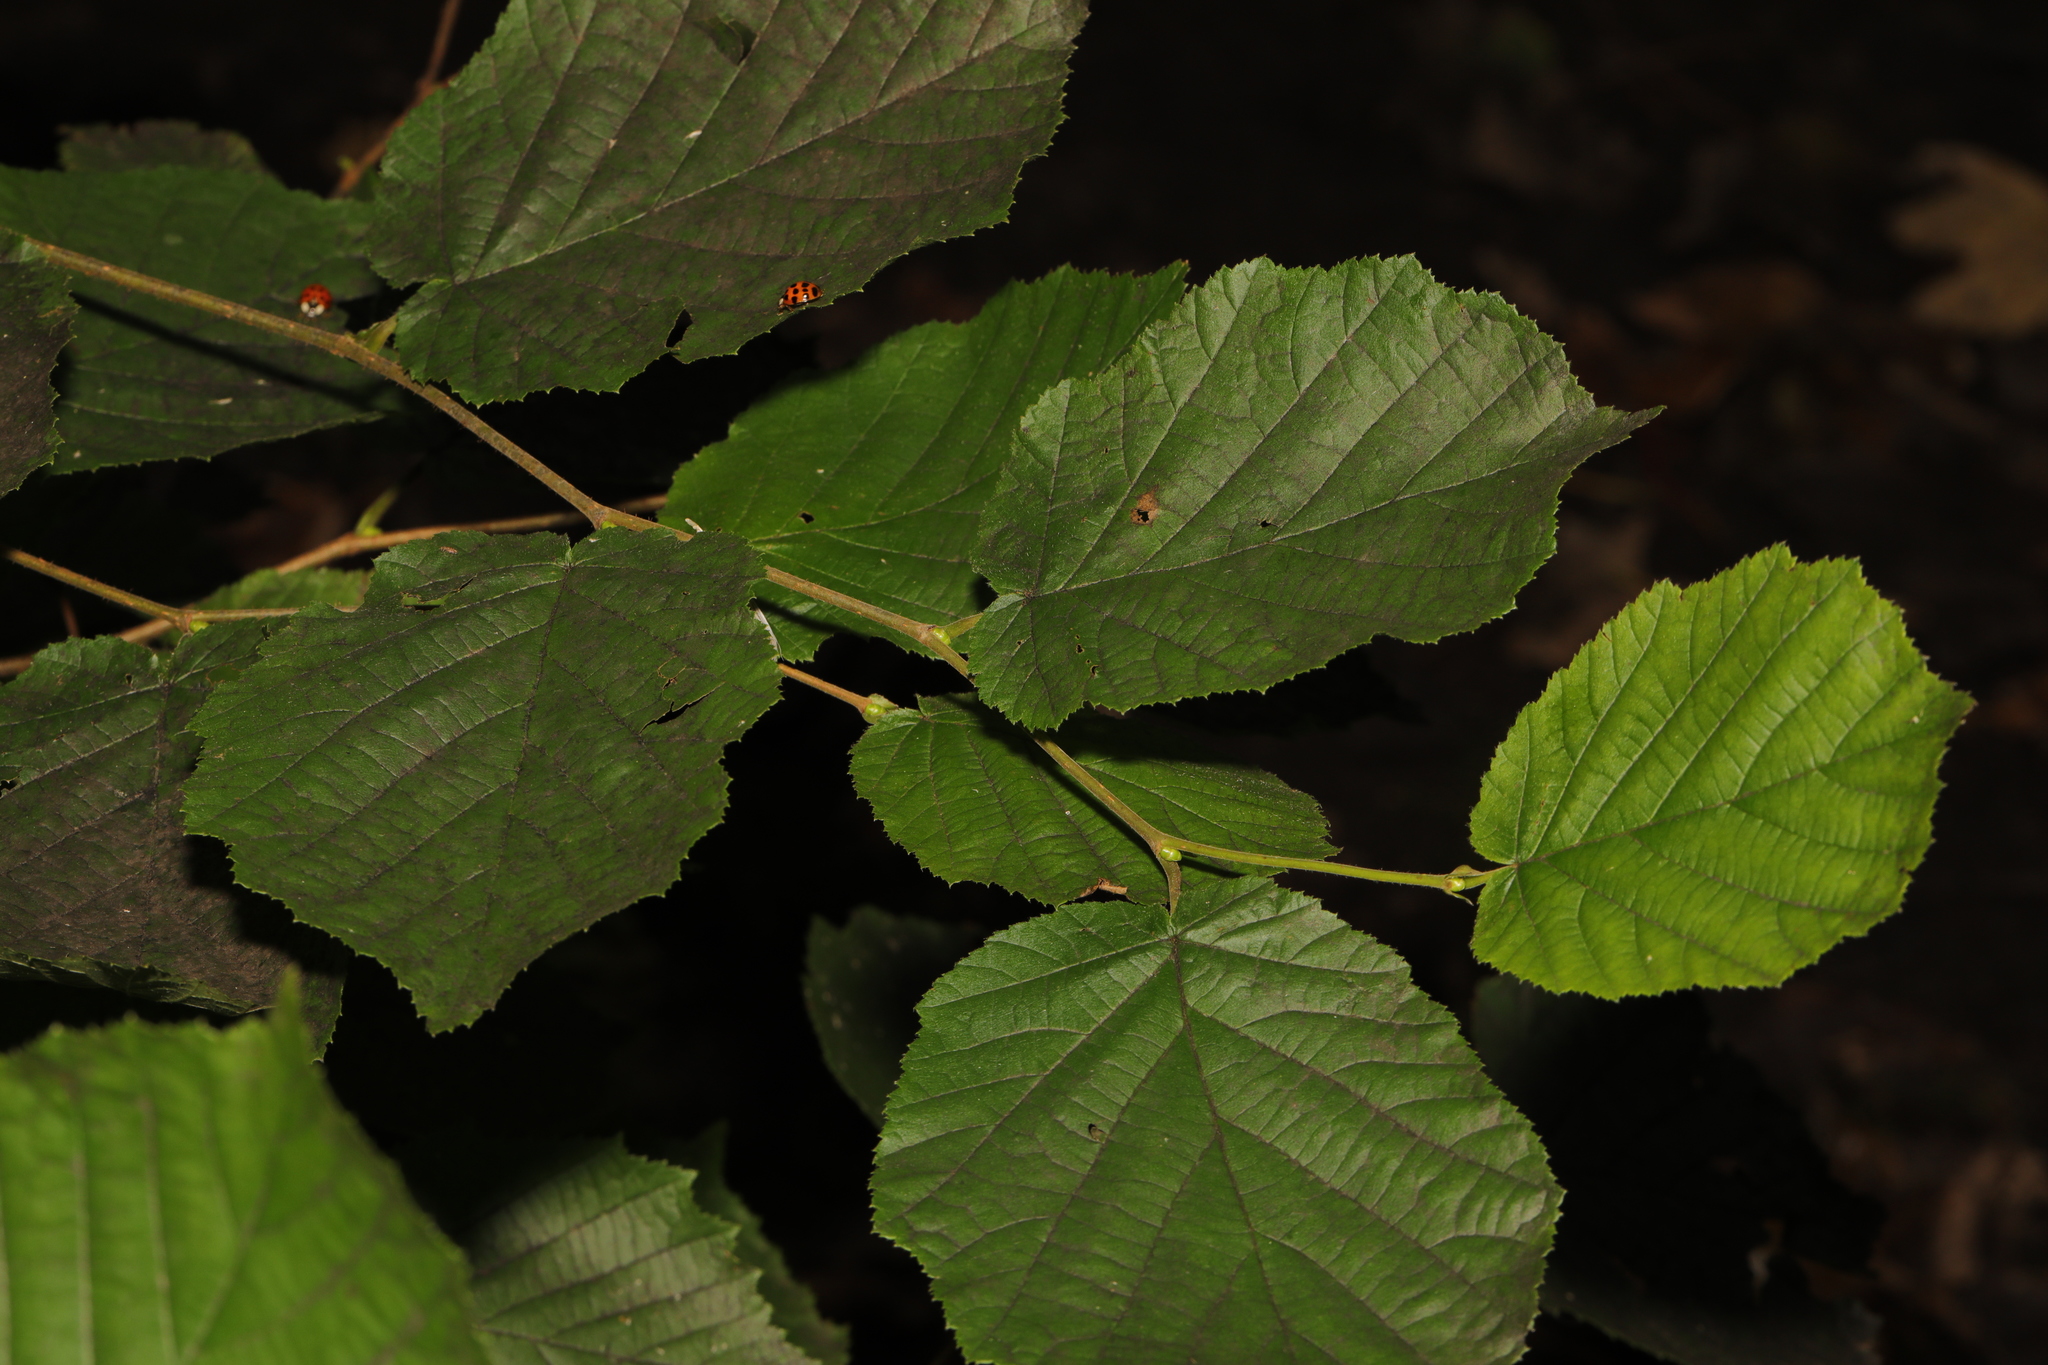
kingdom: Plantae
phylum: Tracheophyta
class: Magnoliopsida
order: Fagales
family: Betulaceae
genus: Corylus
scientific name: Corylus avellana
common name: European hazel
